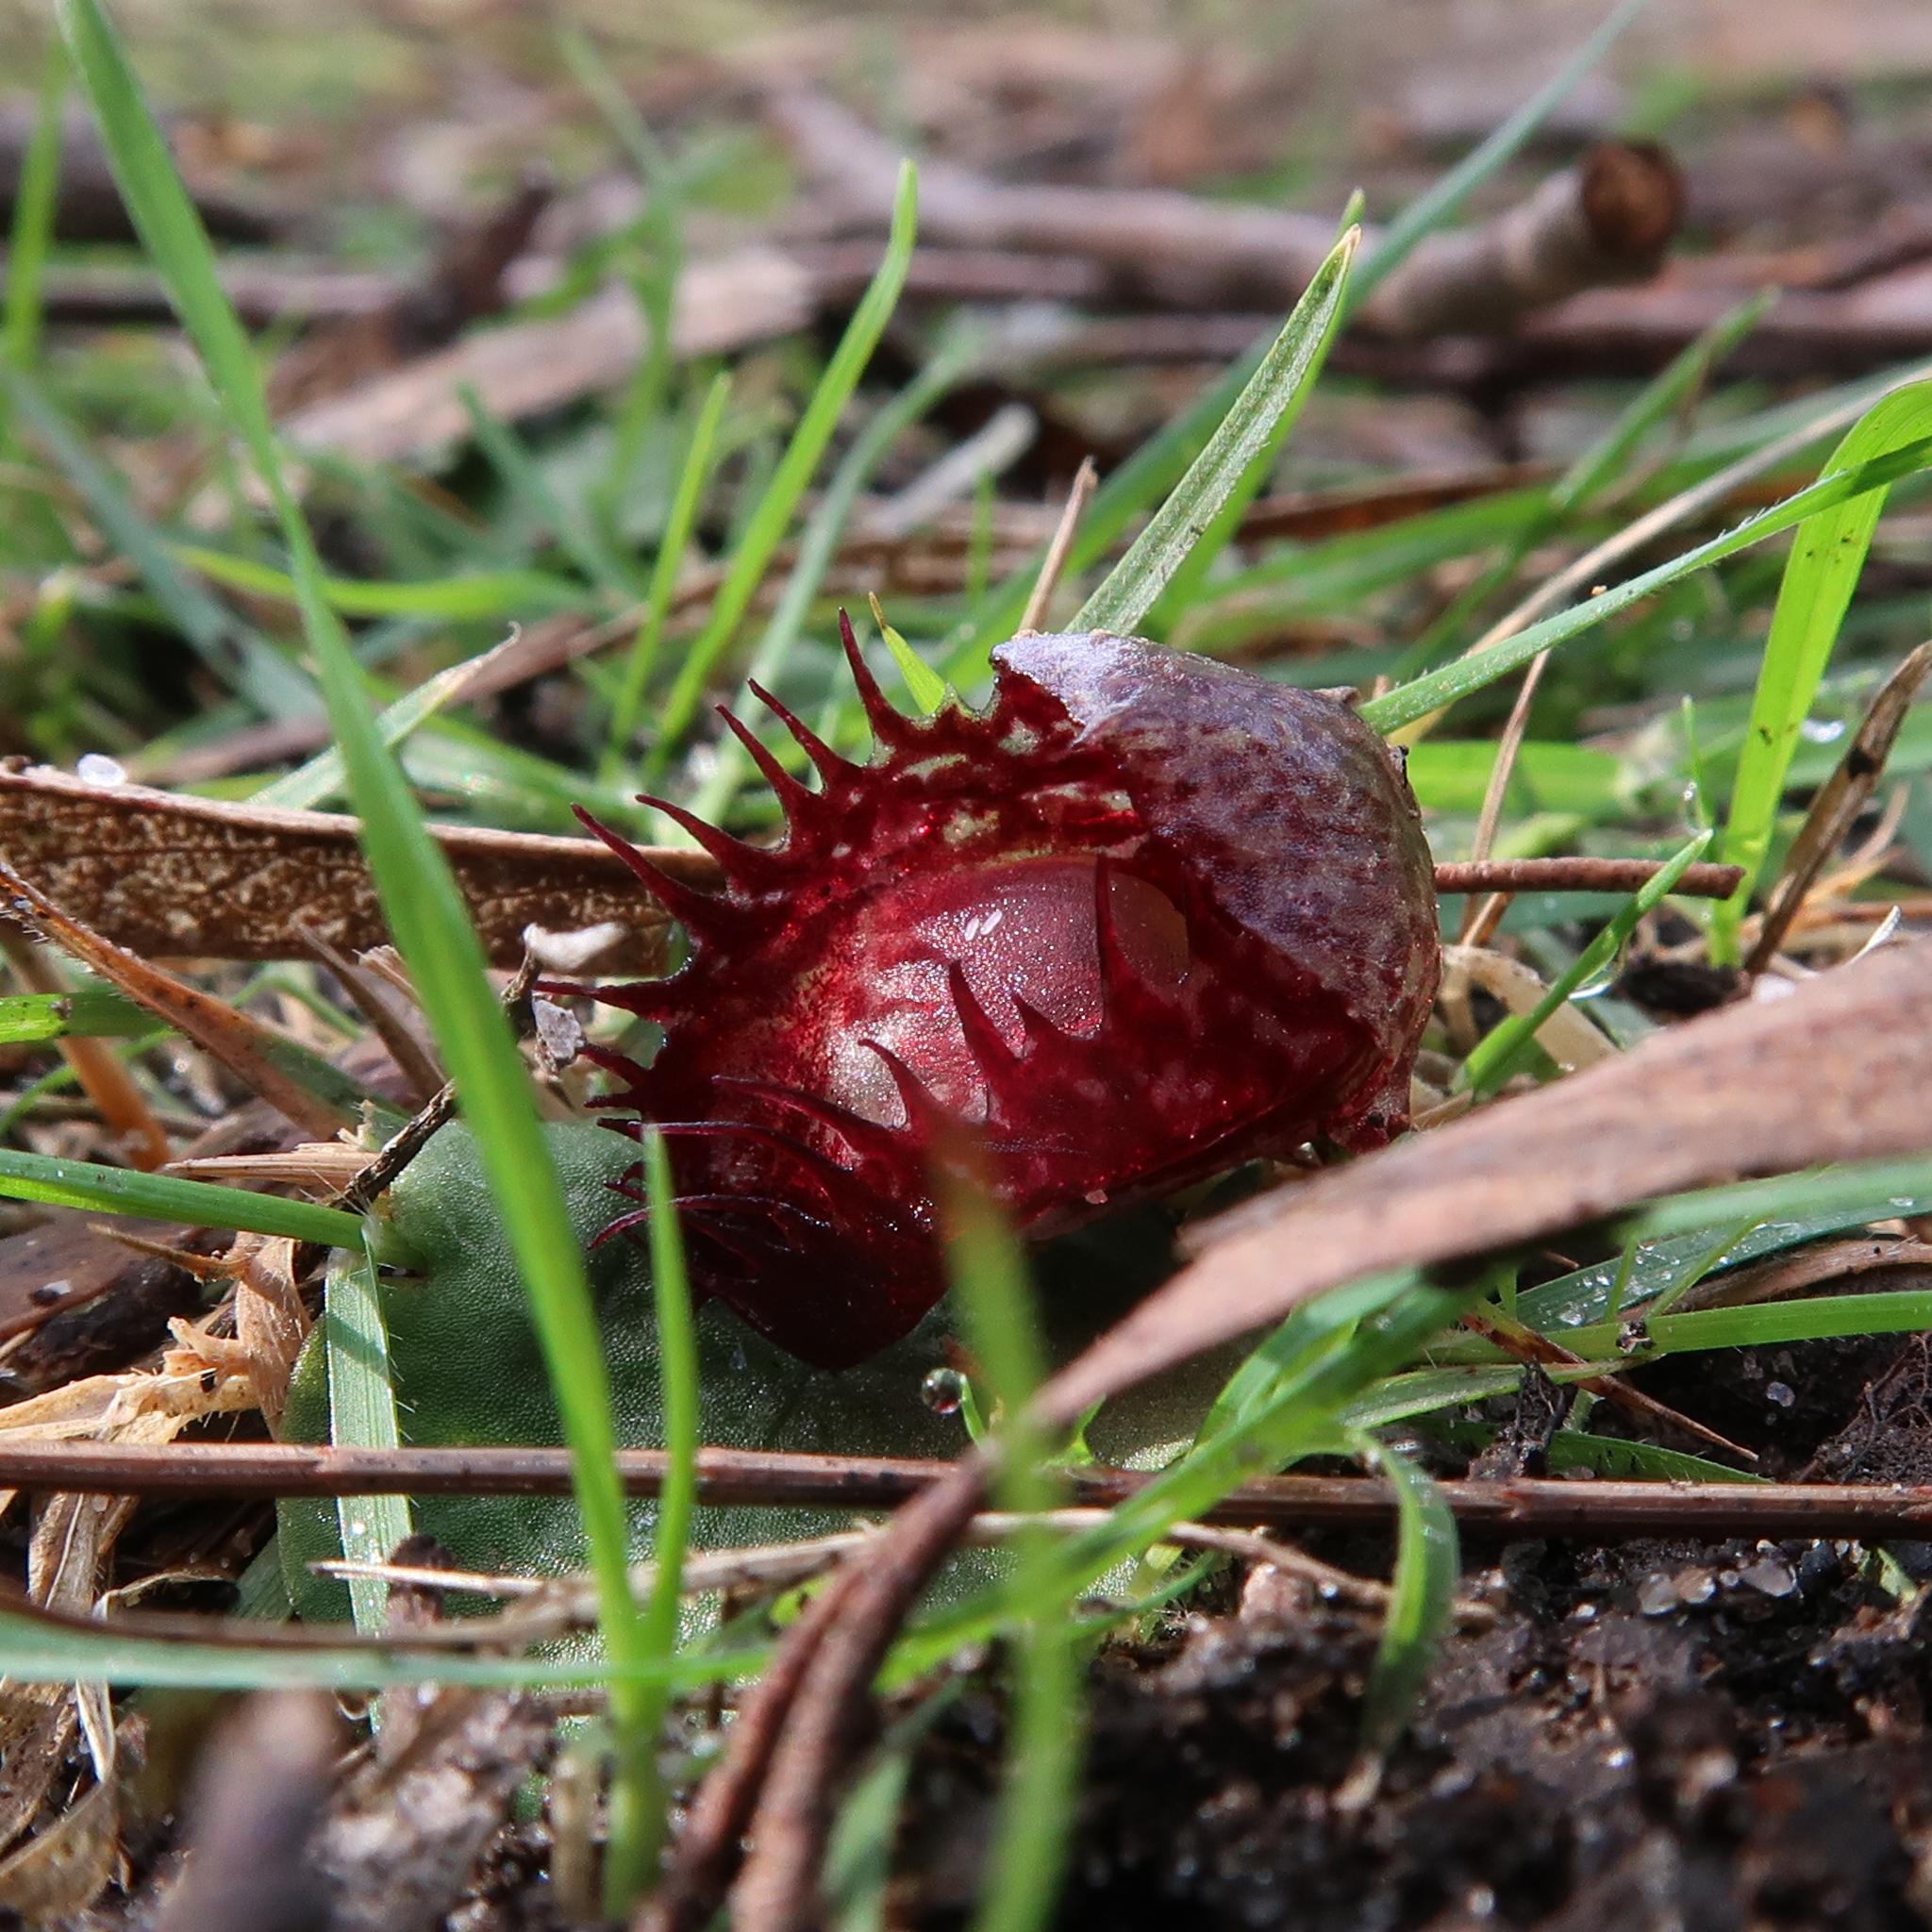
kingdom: Plantae
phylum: Tracheophyta
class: Liliopsida
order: Asparagales
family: Orchidaceae
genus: Corybas
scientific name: Corybas fimbriatus
